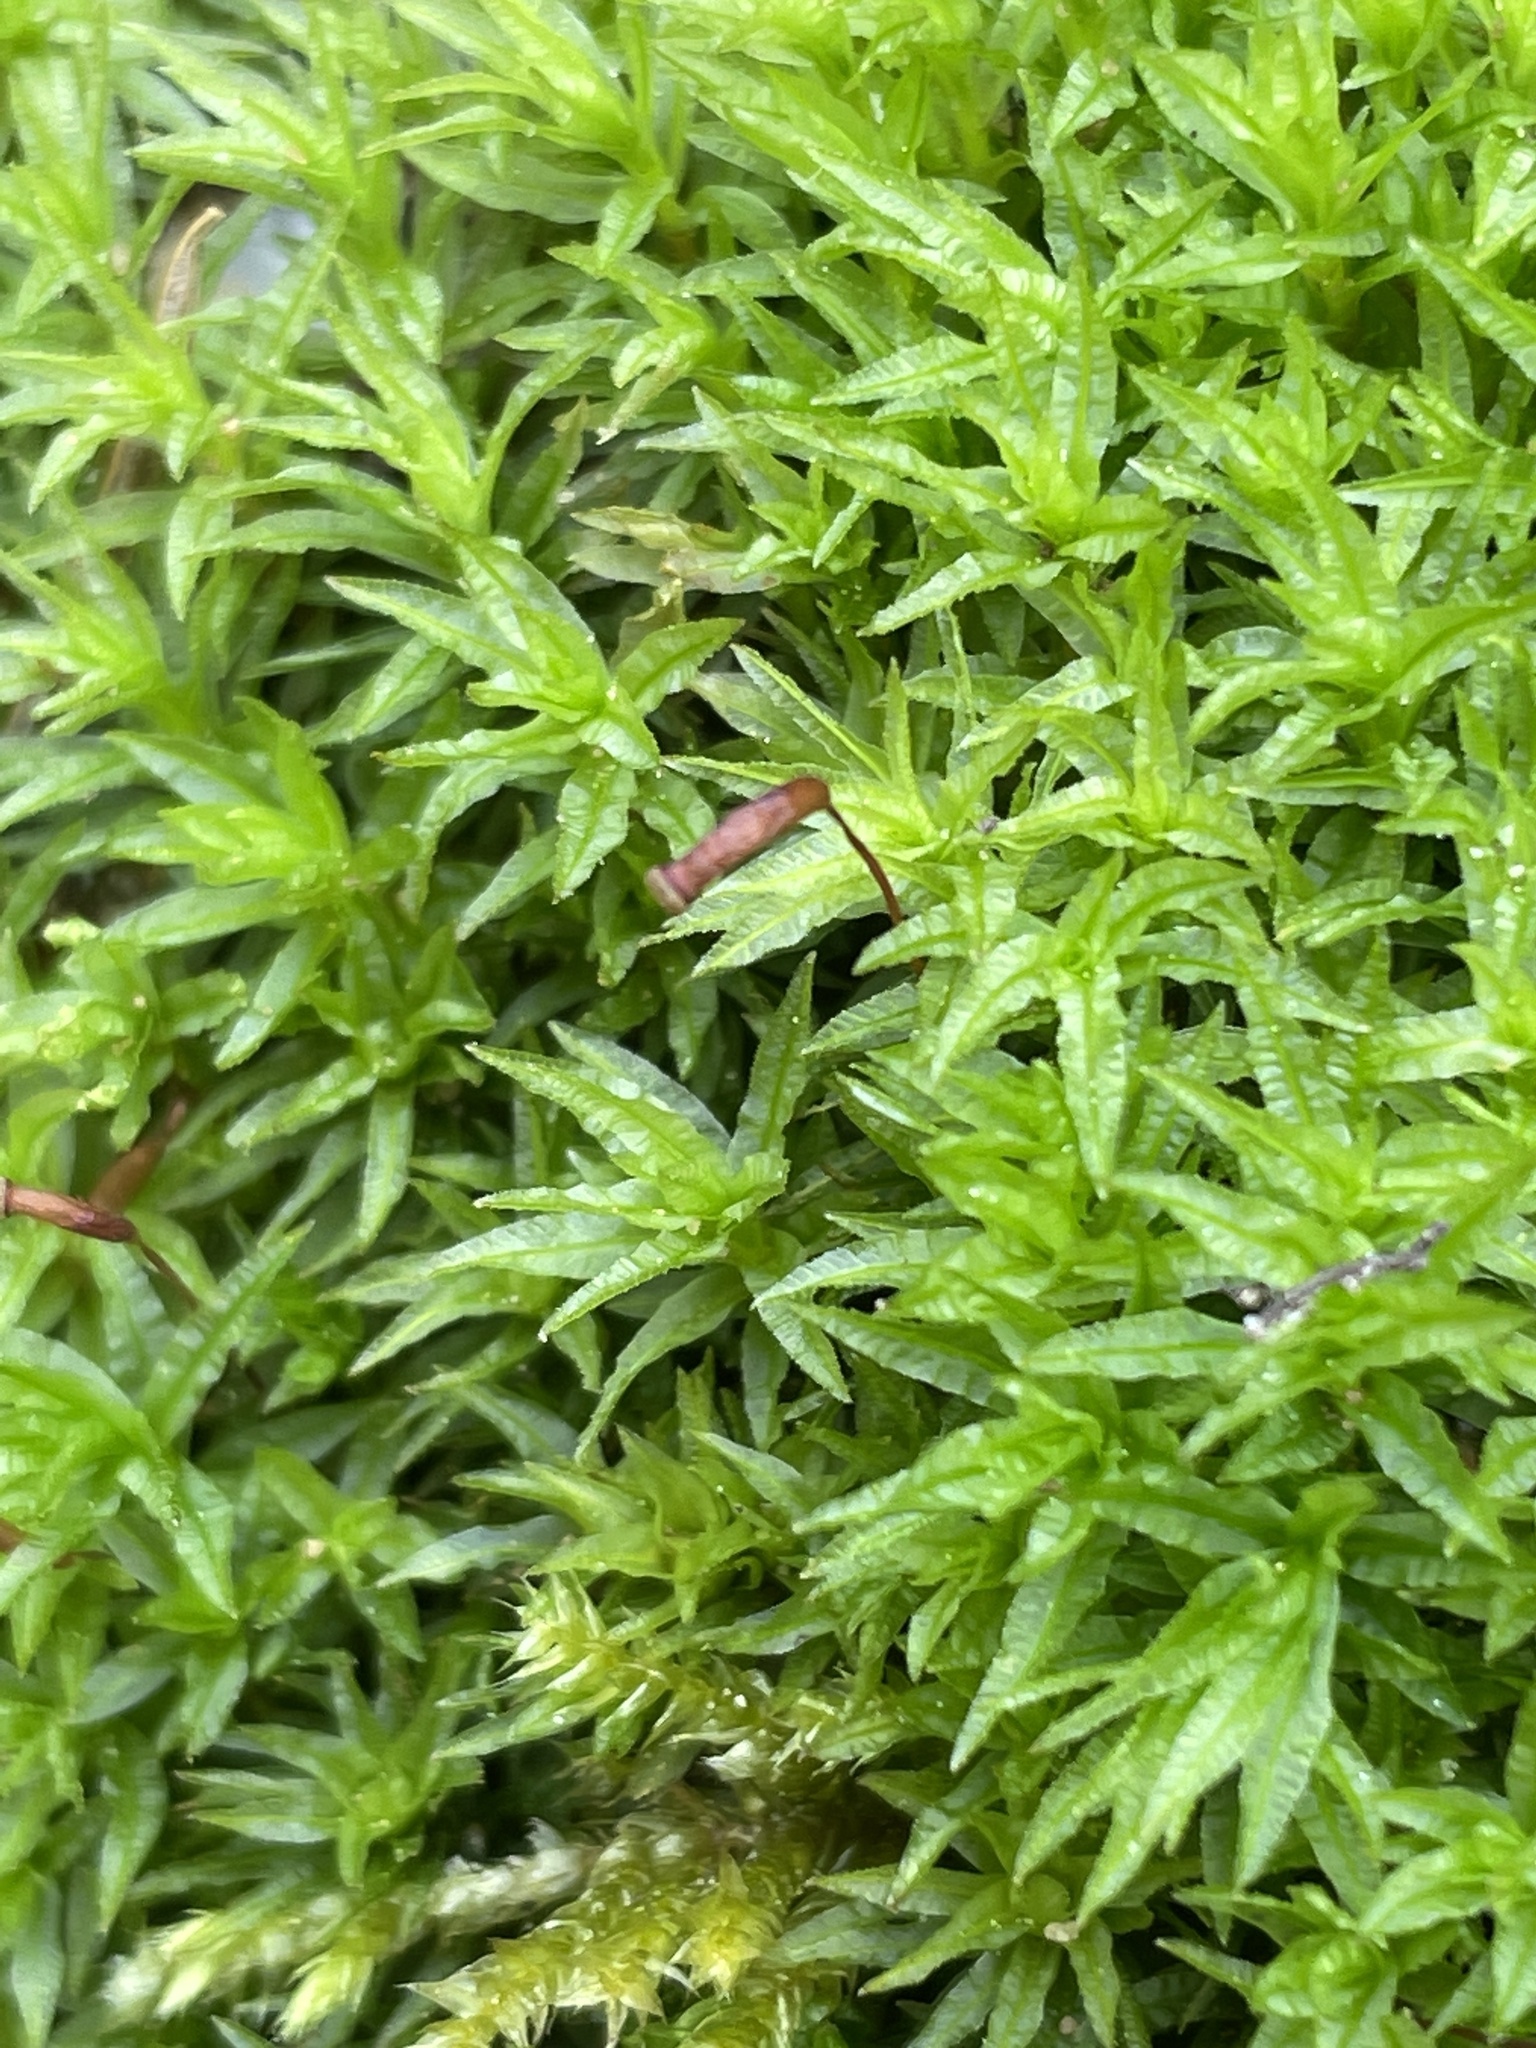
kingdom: Plantae
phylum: Bryophyta
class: Polytrichopsida
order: Polytrichales
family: Polytrichaceae
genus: Atrichum
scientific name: Atrichum undulatum
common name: Common smoothcap
